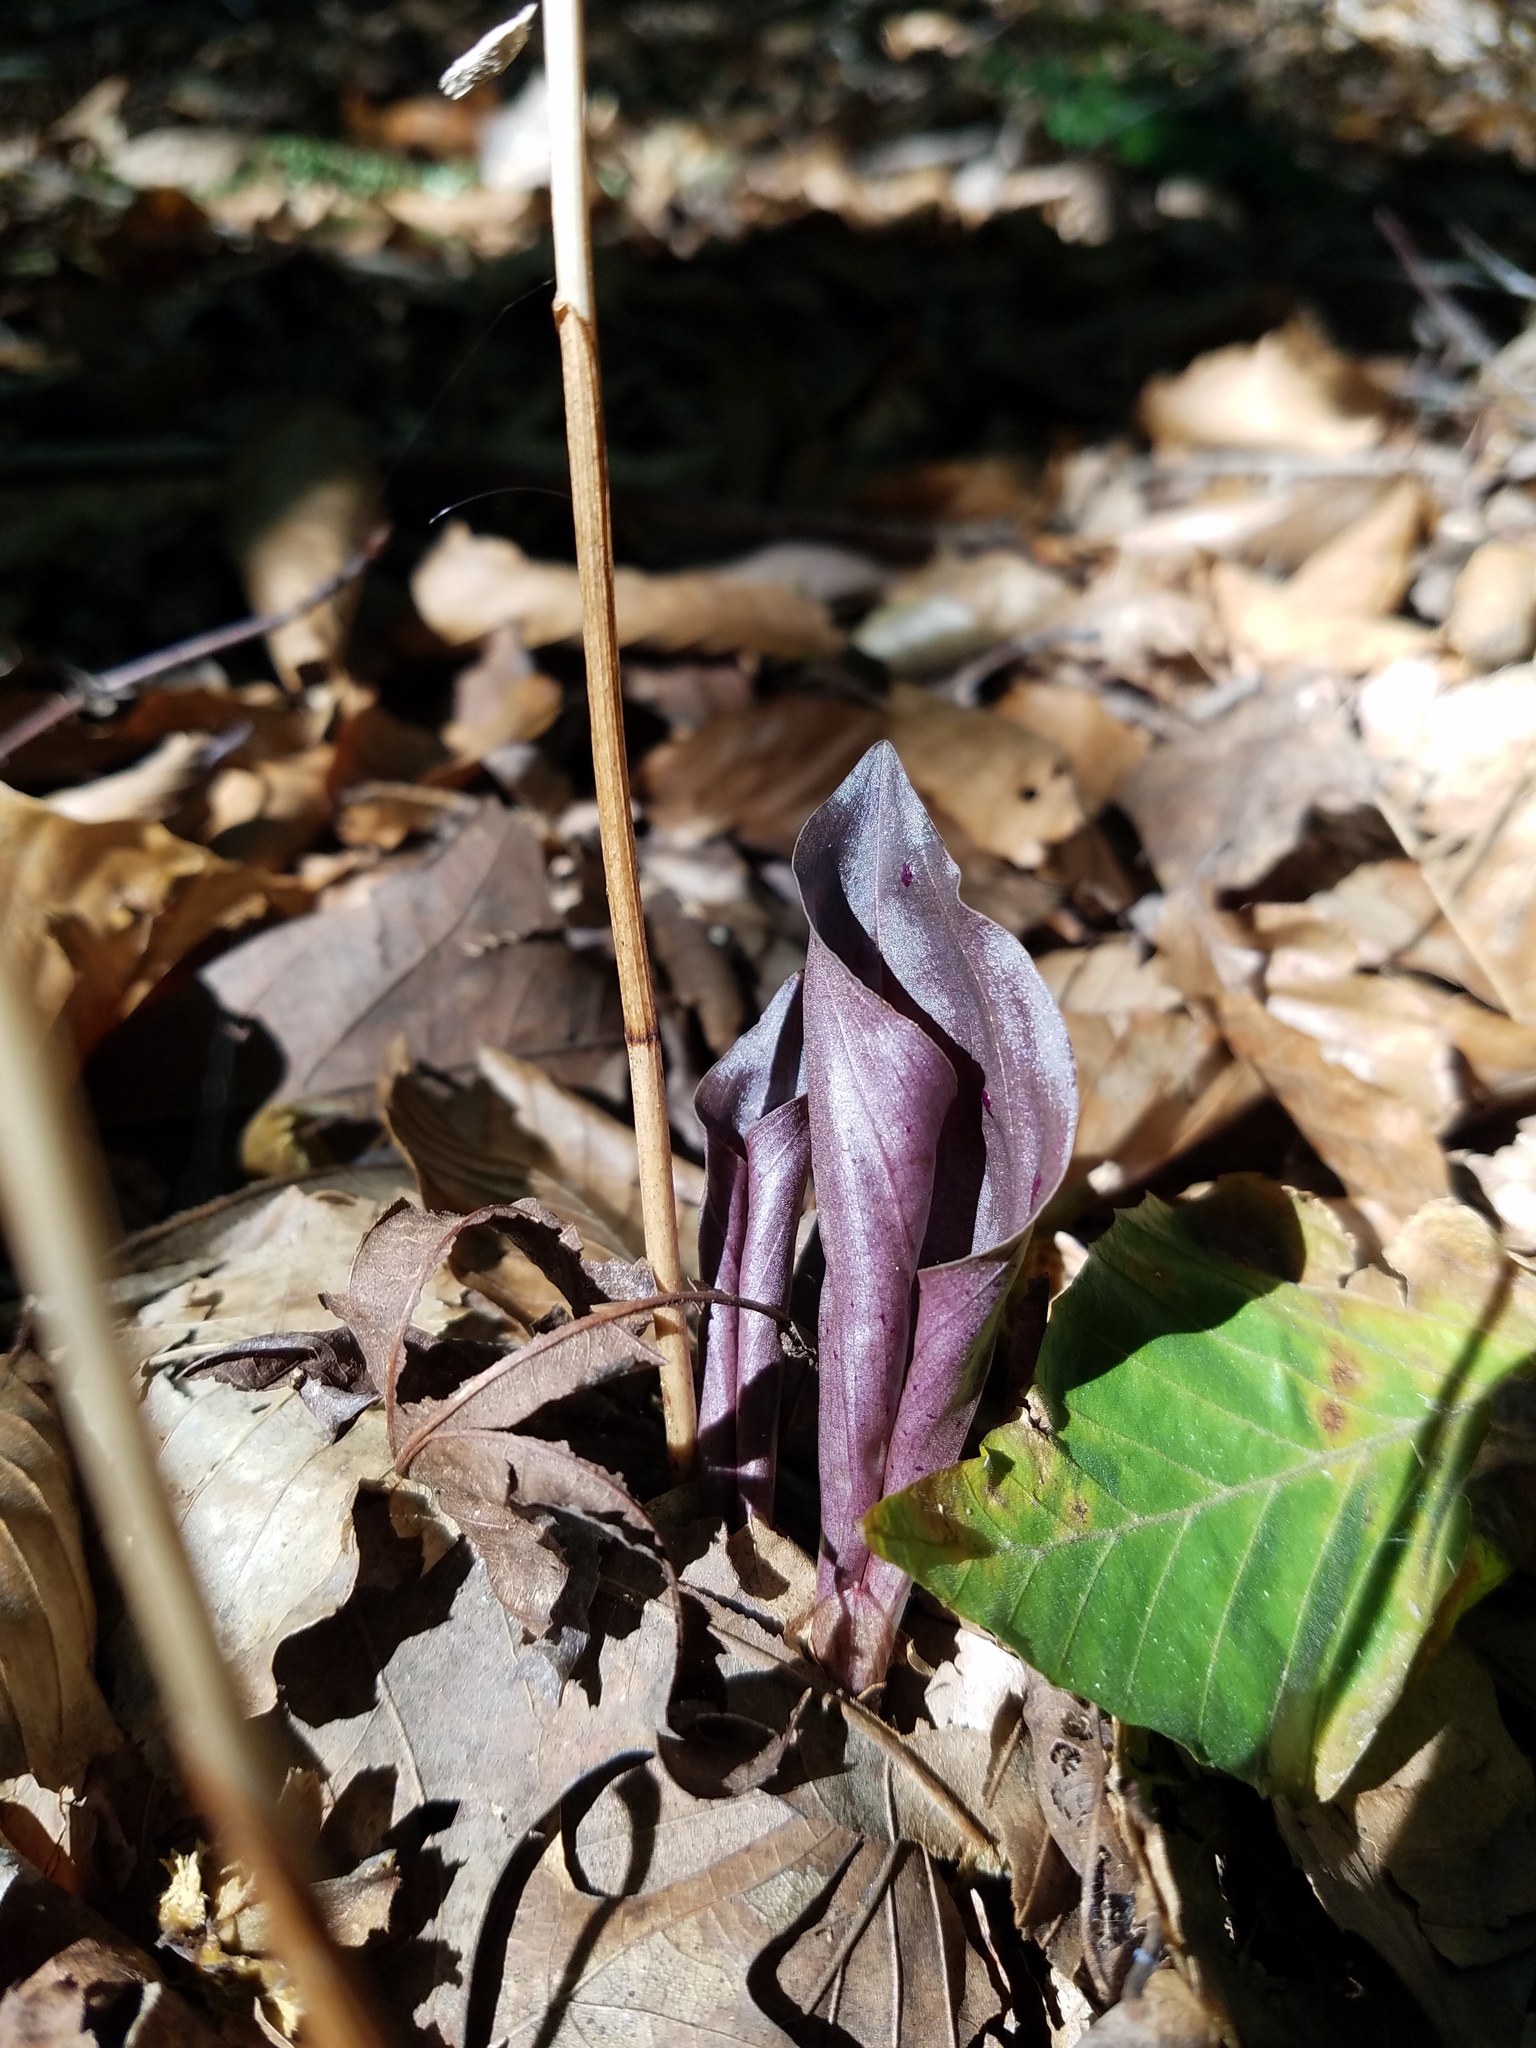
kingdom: Plantae
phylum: Tracheophyta
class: Liliopsida
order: Asparagales
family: Orchidaceae
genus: Tipularia
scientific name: Tipularia discolor
